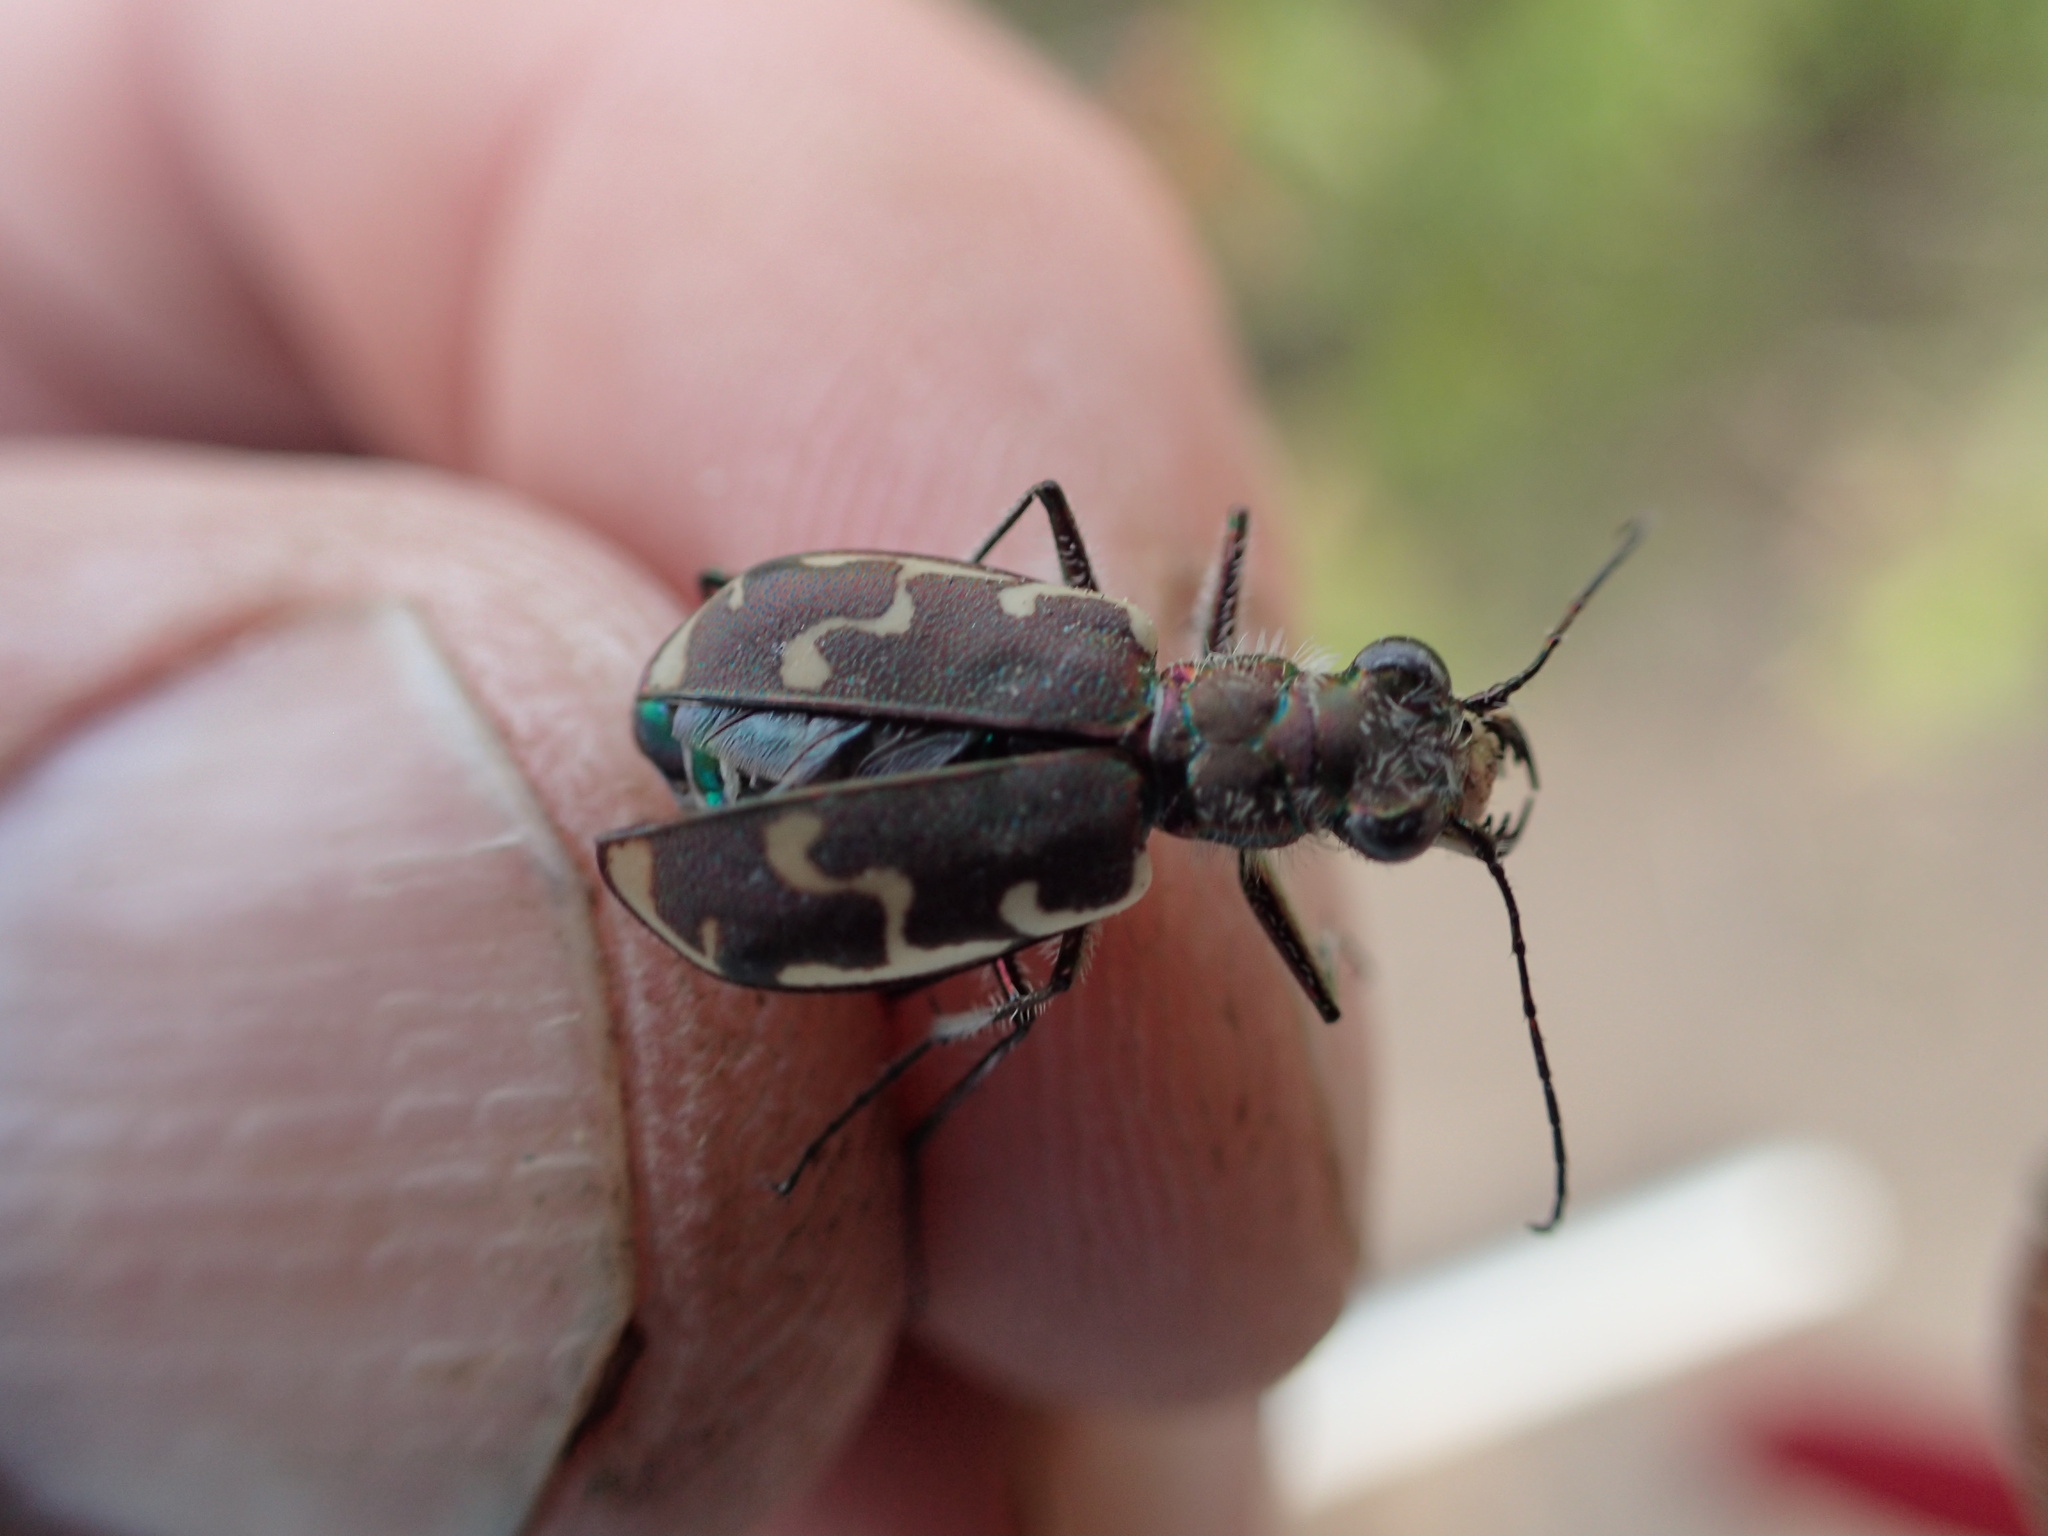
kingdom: Animalia
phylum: Arthropoda
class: Insecta
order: Coleoptera
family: Carabidae
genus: Cicindela
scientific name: Cicindela repanda
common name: Bronzed tiger beetle
